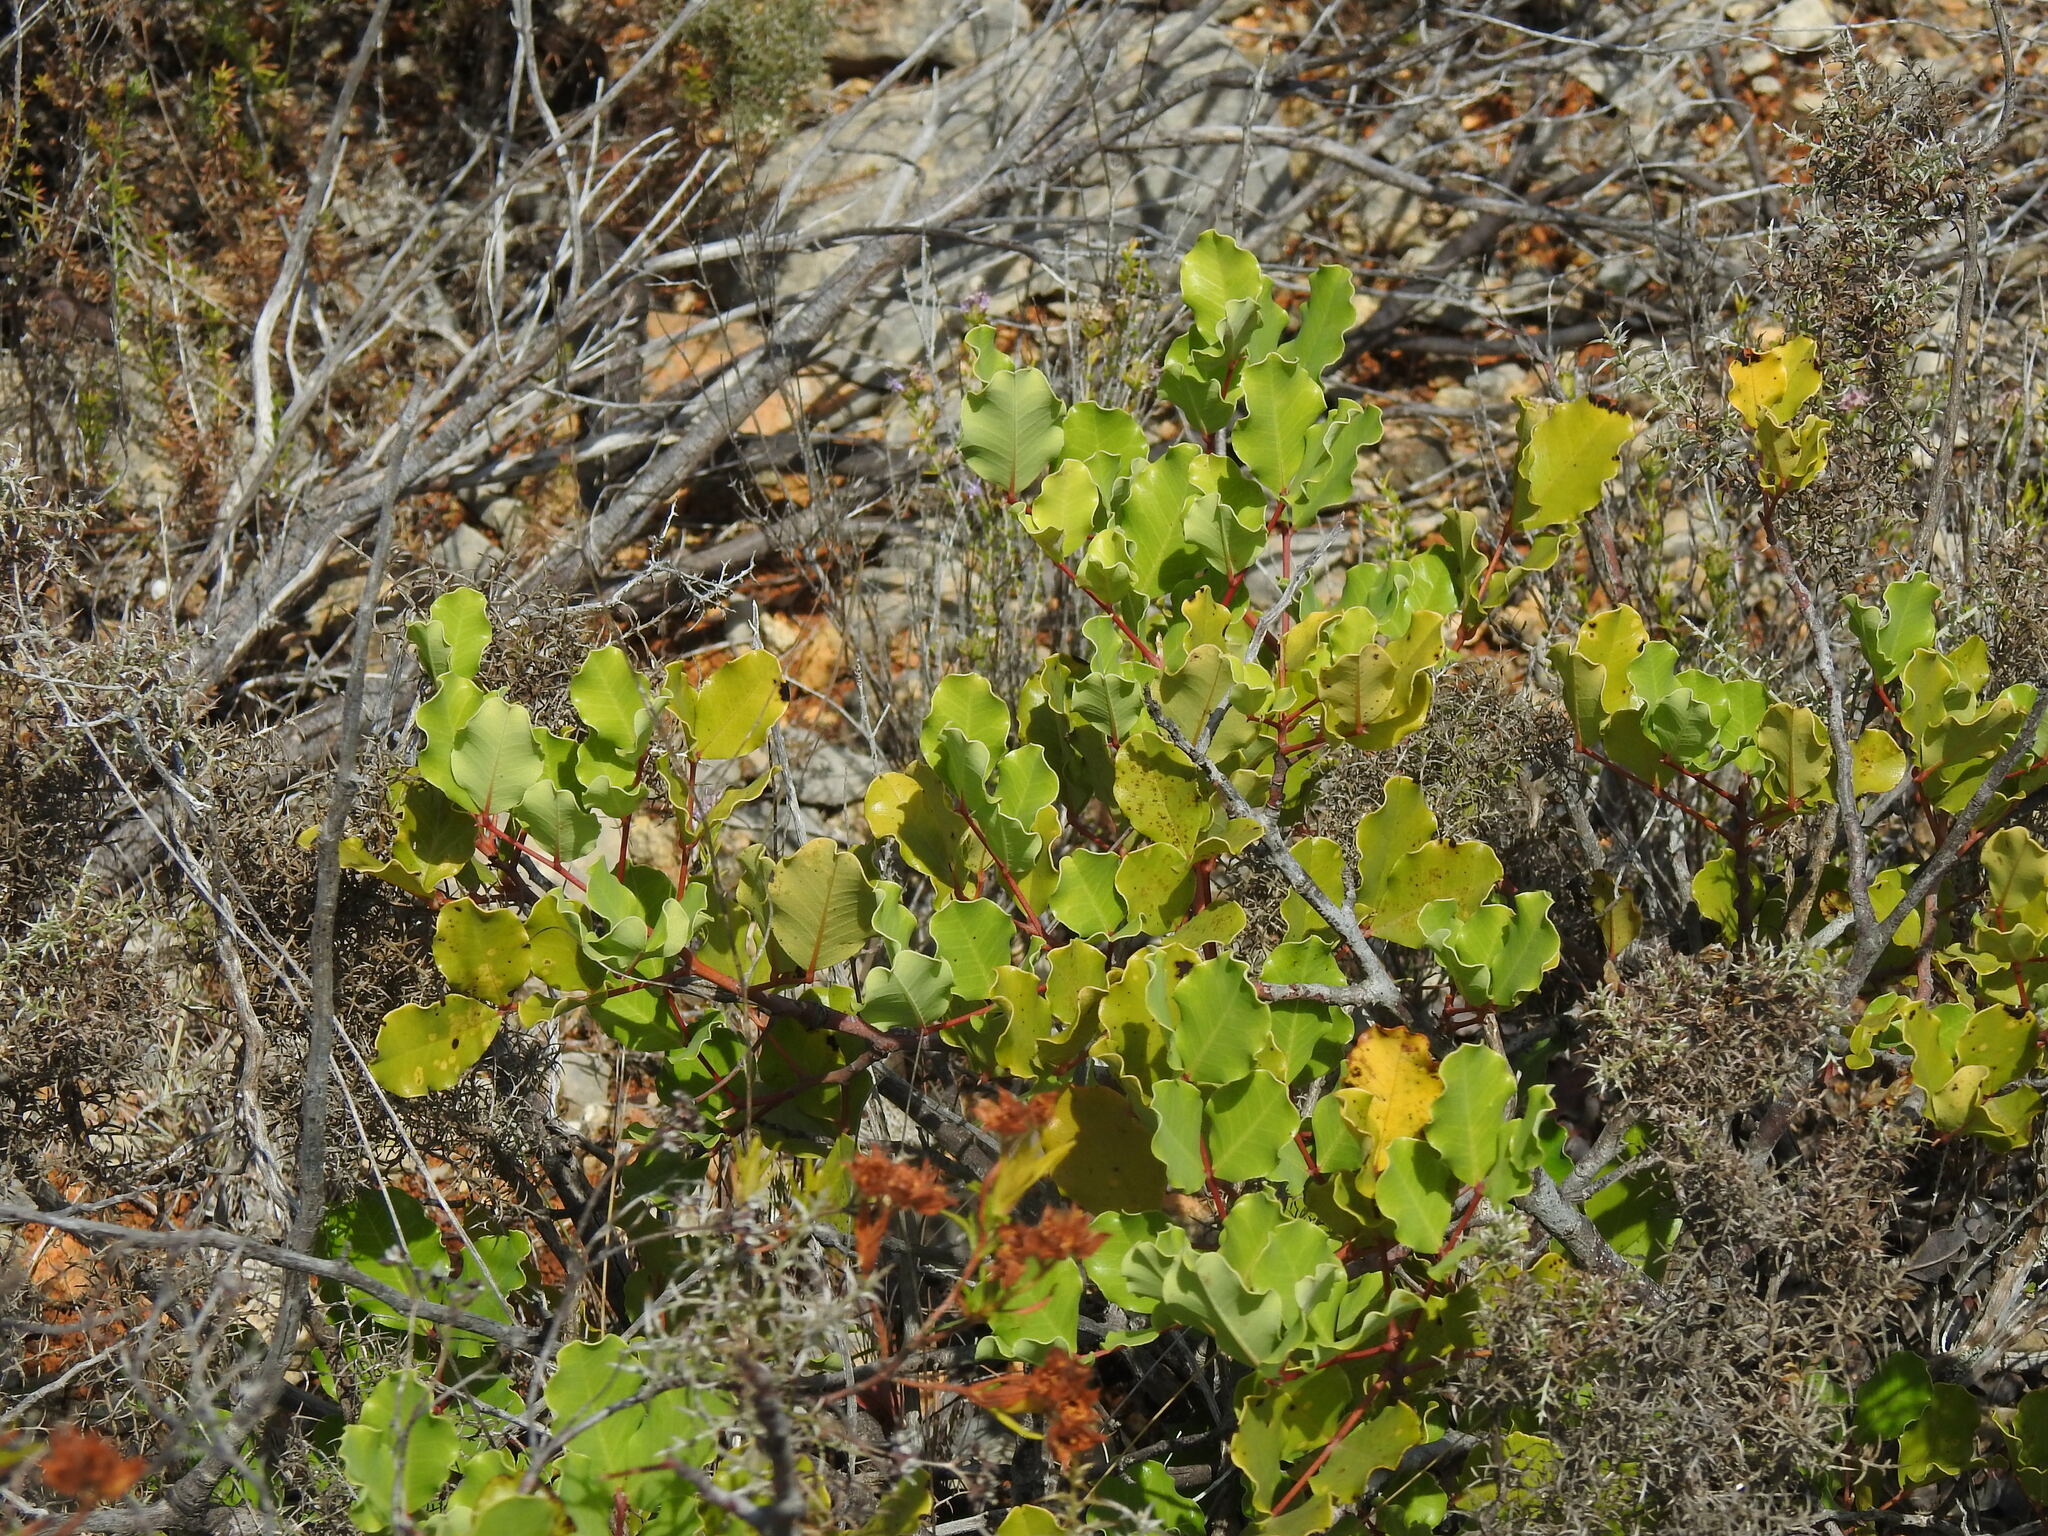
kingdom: Plantae
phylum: Tracheophyta
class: Magnoliopsida
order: Fabales
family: Fabaceae
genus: Ceratonia
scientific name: Ceratonia siliqua
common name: Carob
